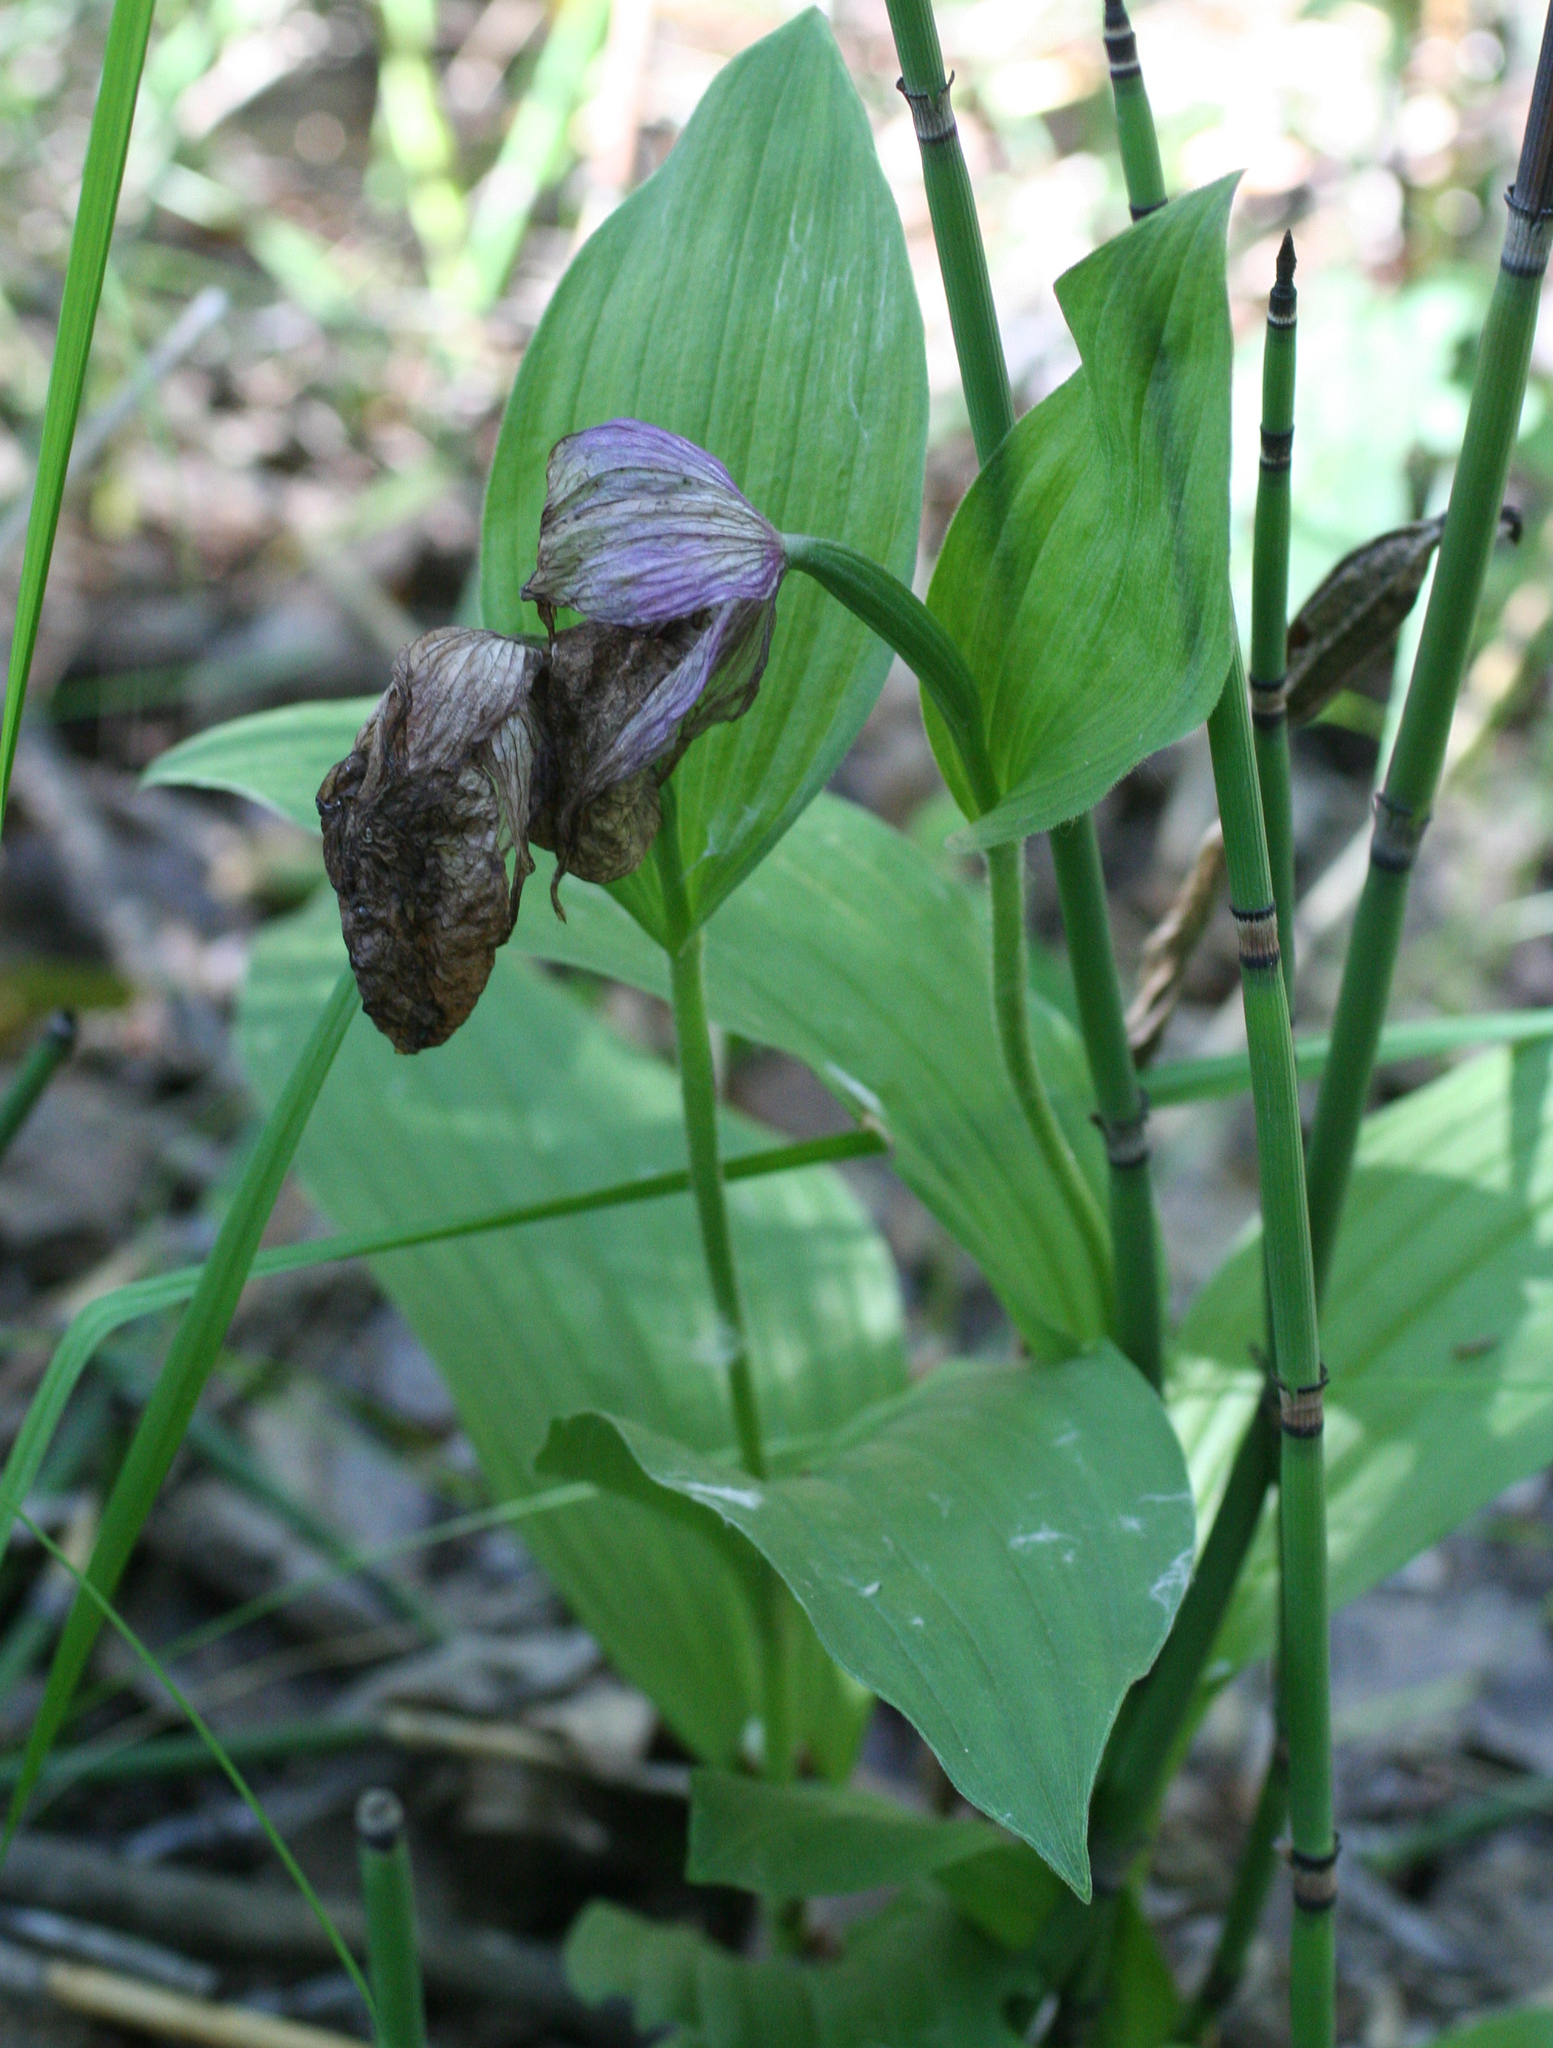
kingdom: Plantae
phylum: Tracheophyta
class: Liliopsida
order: Asparagales
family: Orchidaceae
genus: Cypripedium
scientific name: Cypripedium macranthos
